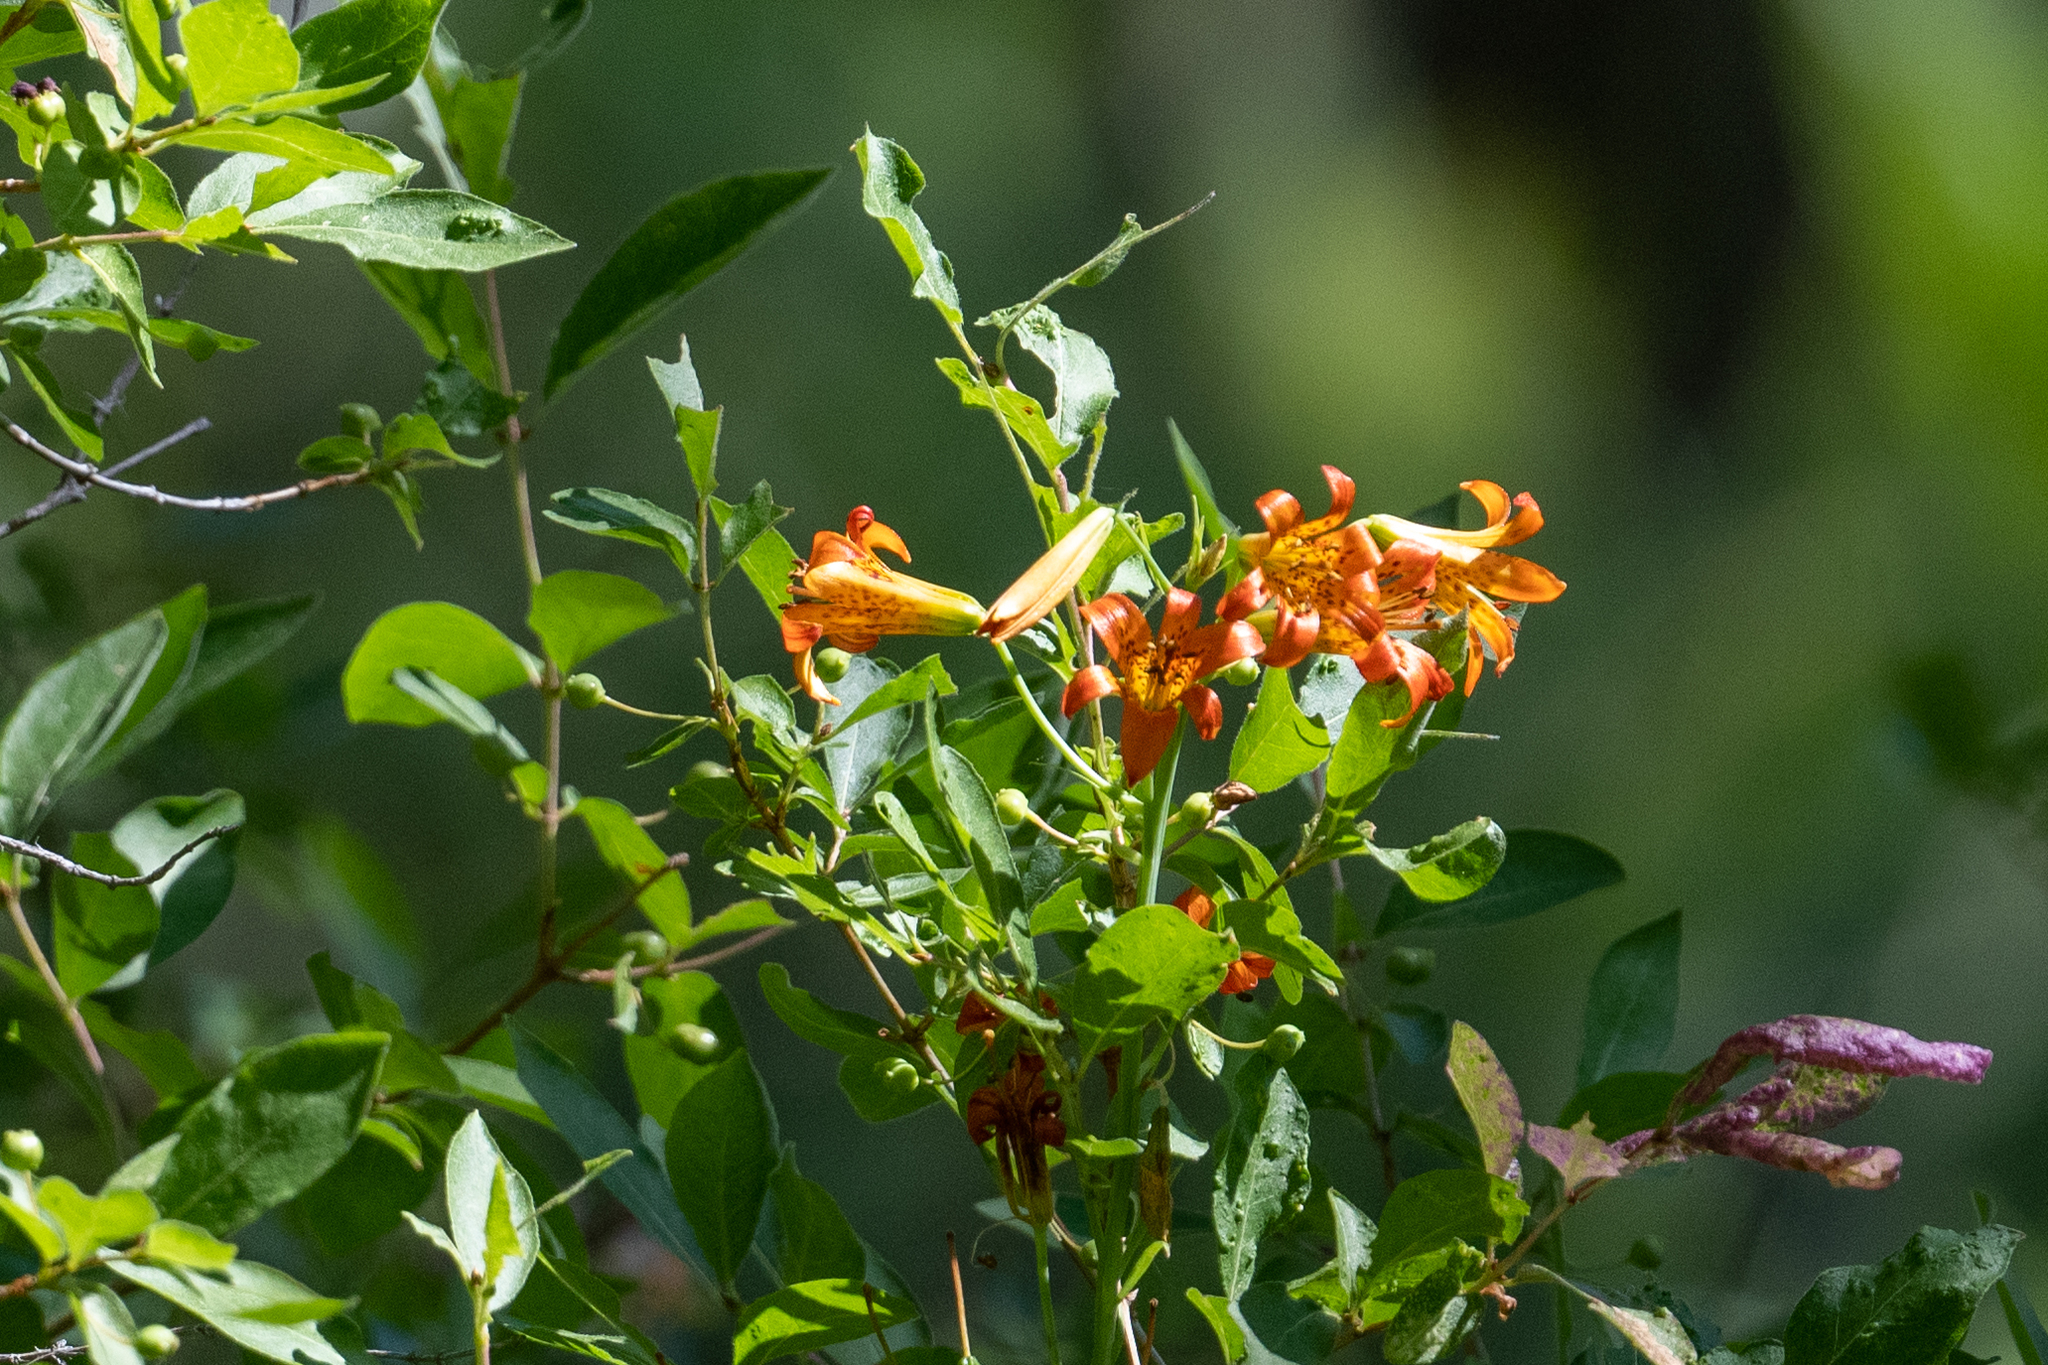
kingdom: Plantae
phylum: Tracheophyta
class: Liliopsida
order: Liliales
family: Liliaceae
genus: Lilium
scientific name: Lilium parvum
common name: Alpine lily
